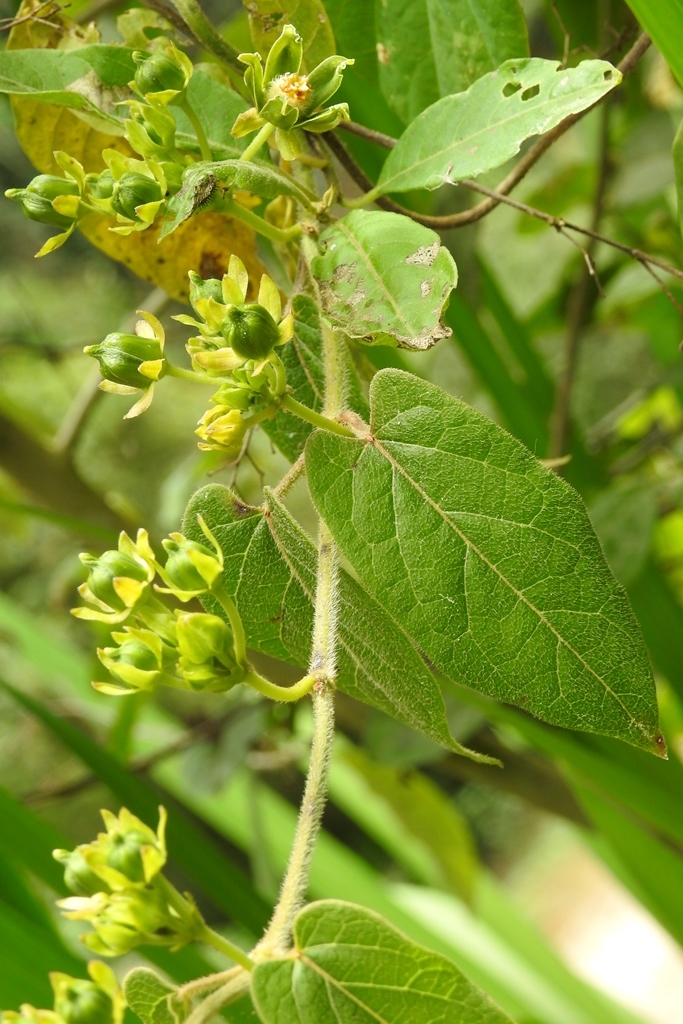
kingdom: Plantae
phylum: Tracheophyta
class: Magnoliopsida
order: Gentianales
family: Apocynaceae
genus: Gonolobus
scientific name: Gonolobus stenosepalus
